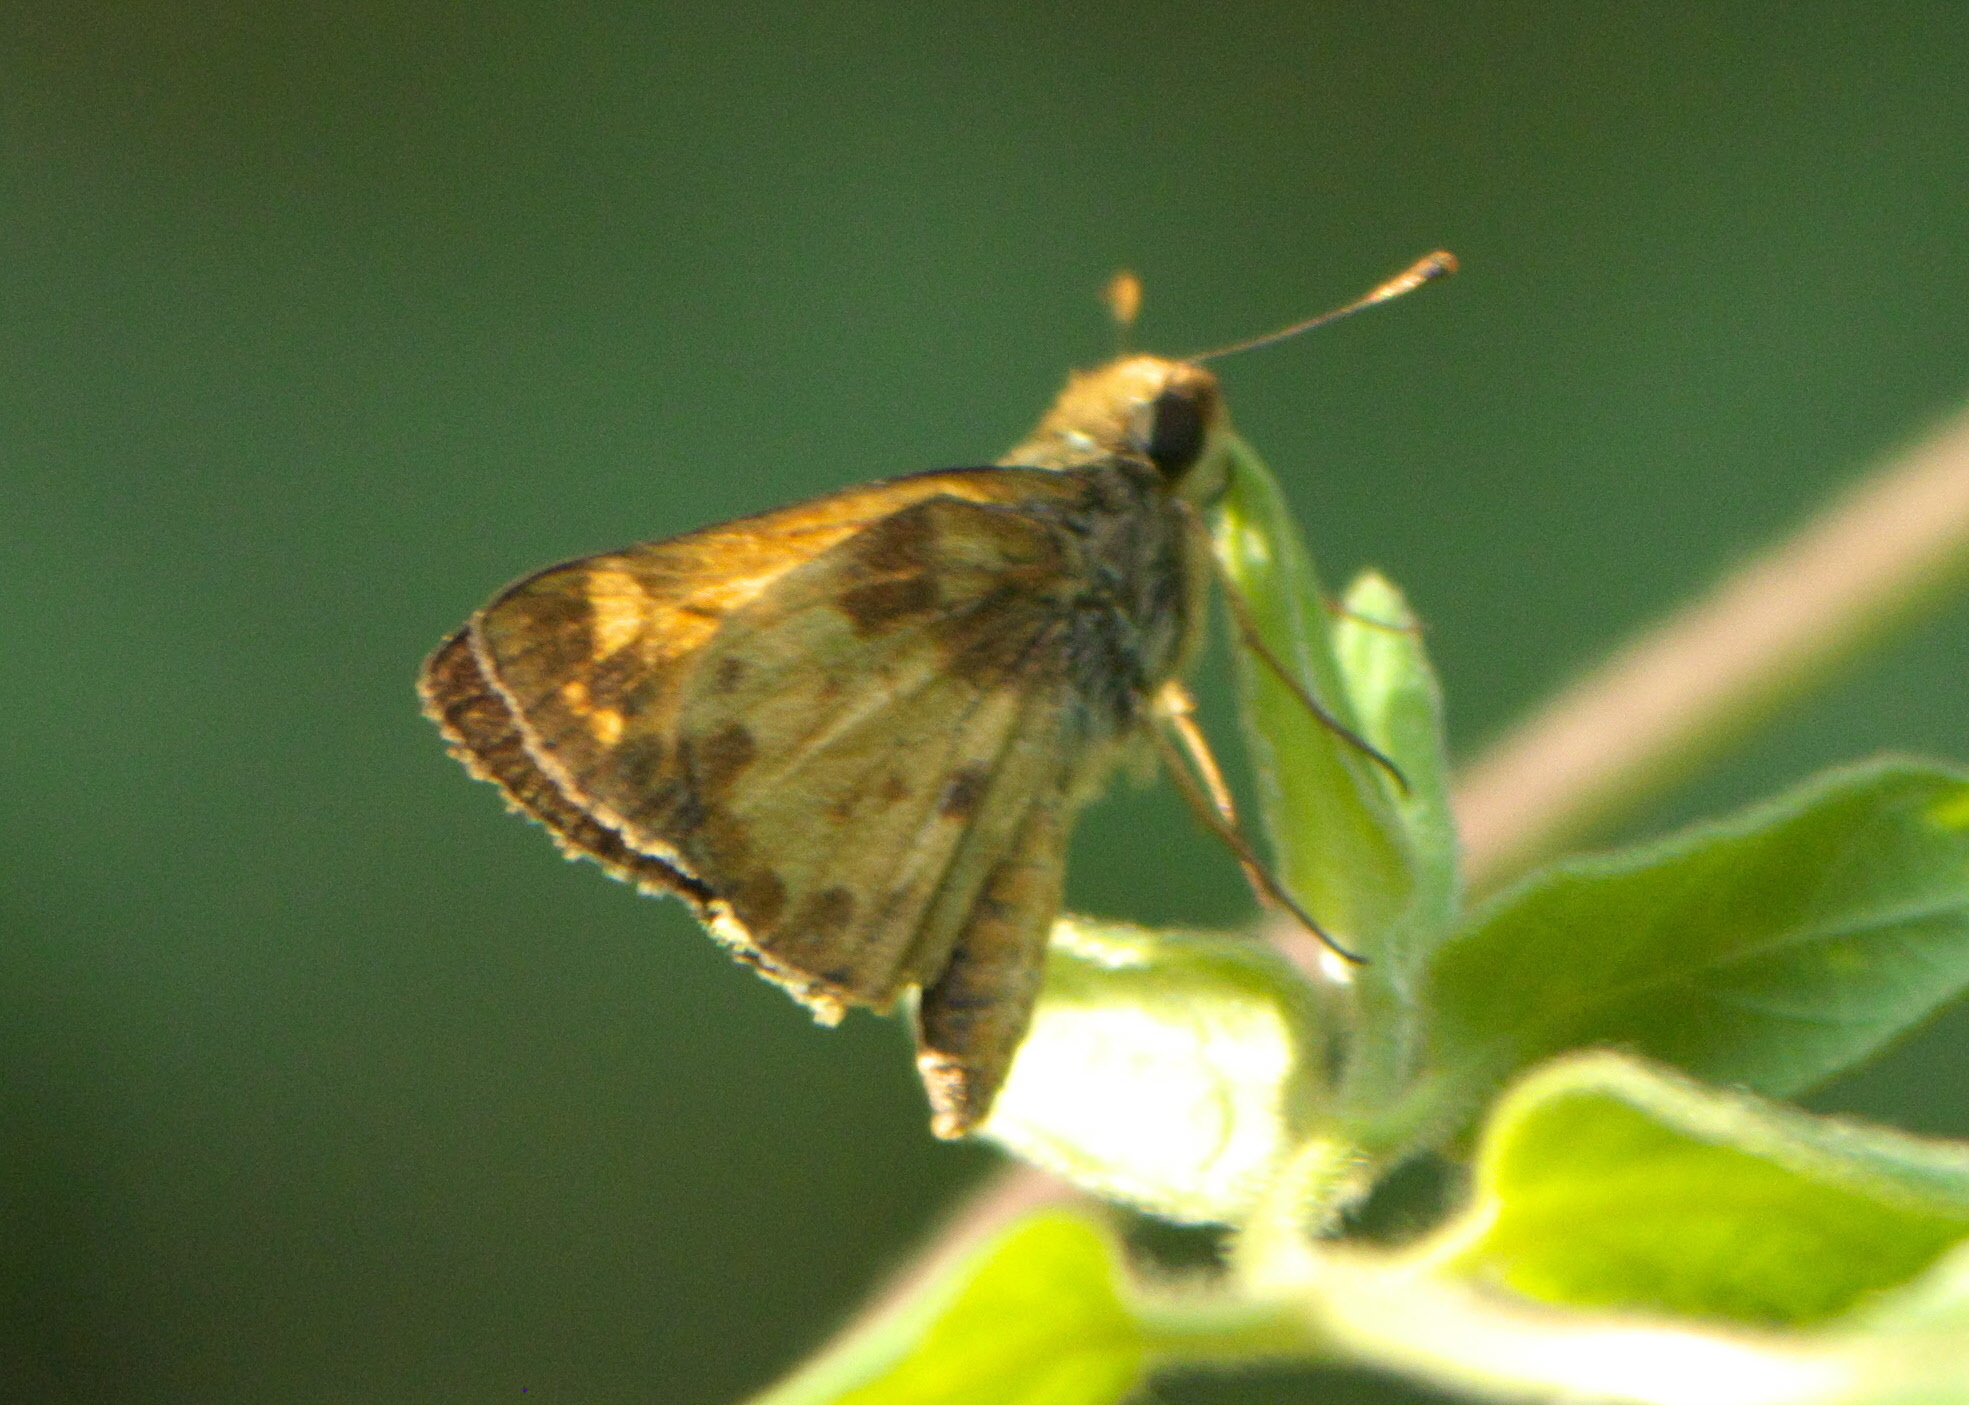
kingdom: Animalia
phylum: Arthropoda
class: Insecta
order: Lepidoptera
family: Hesperiidae
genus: Lon
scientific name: Lon zabulon
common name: Zabulon skipper
